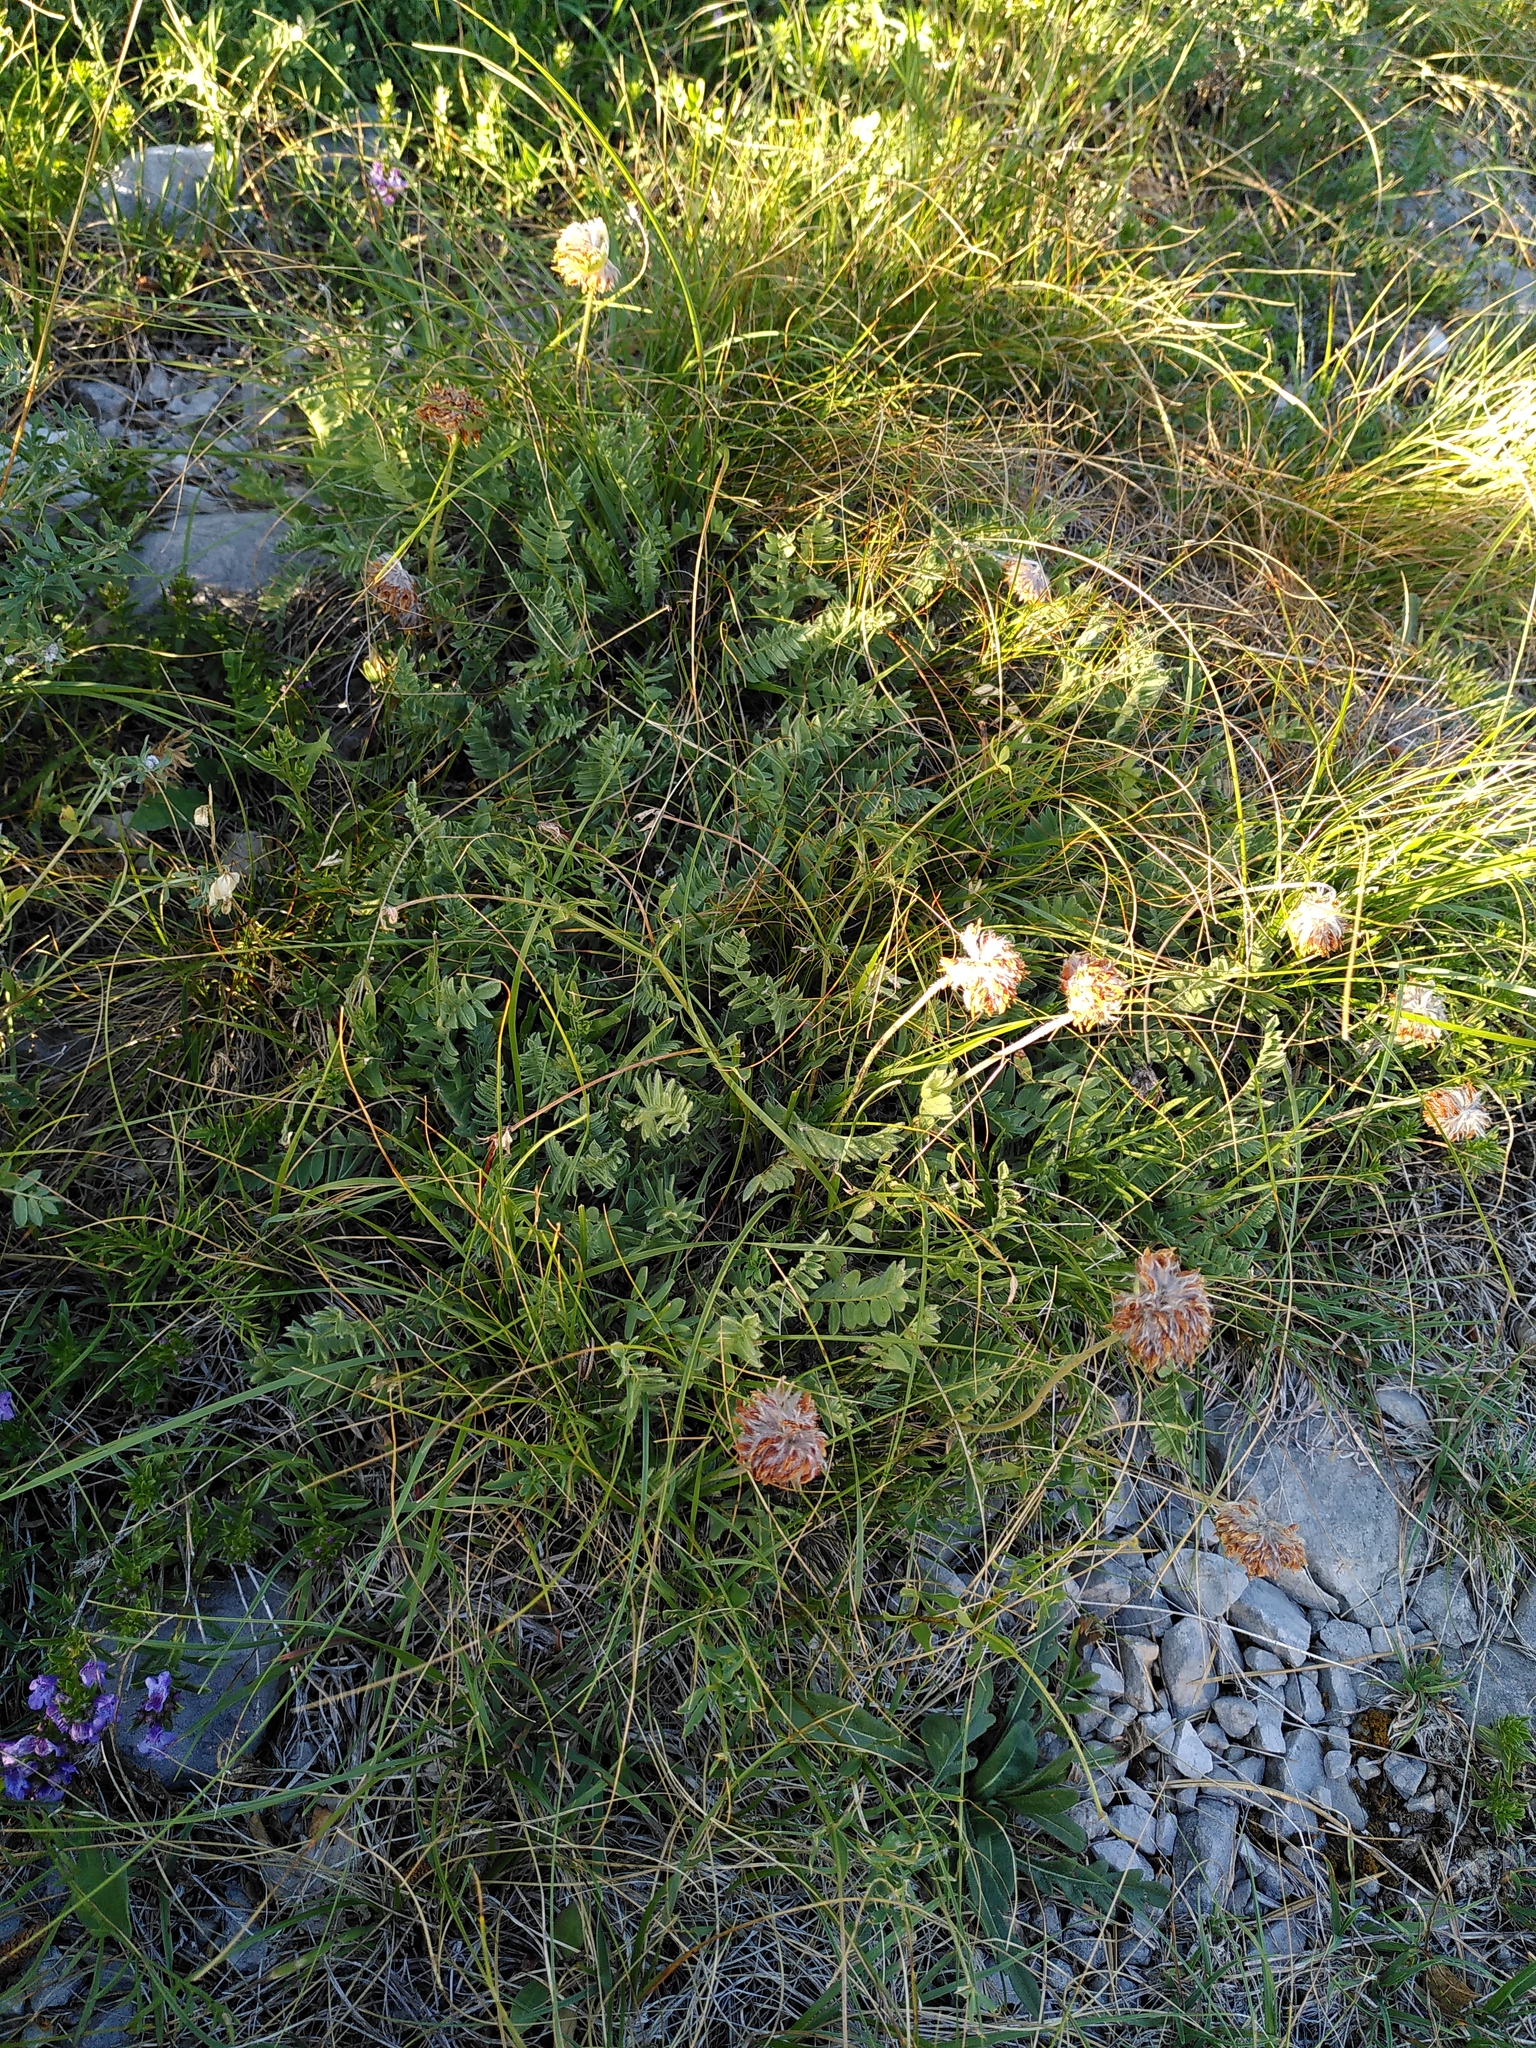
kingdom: Plantae
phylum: Tracheophyta
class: Magnoliopsida
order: Fabales
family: Fabaceae
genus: Anthyllis
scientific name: Anthyllis montana
